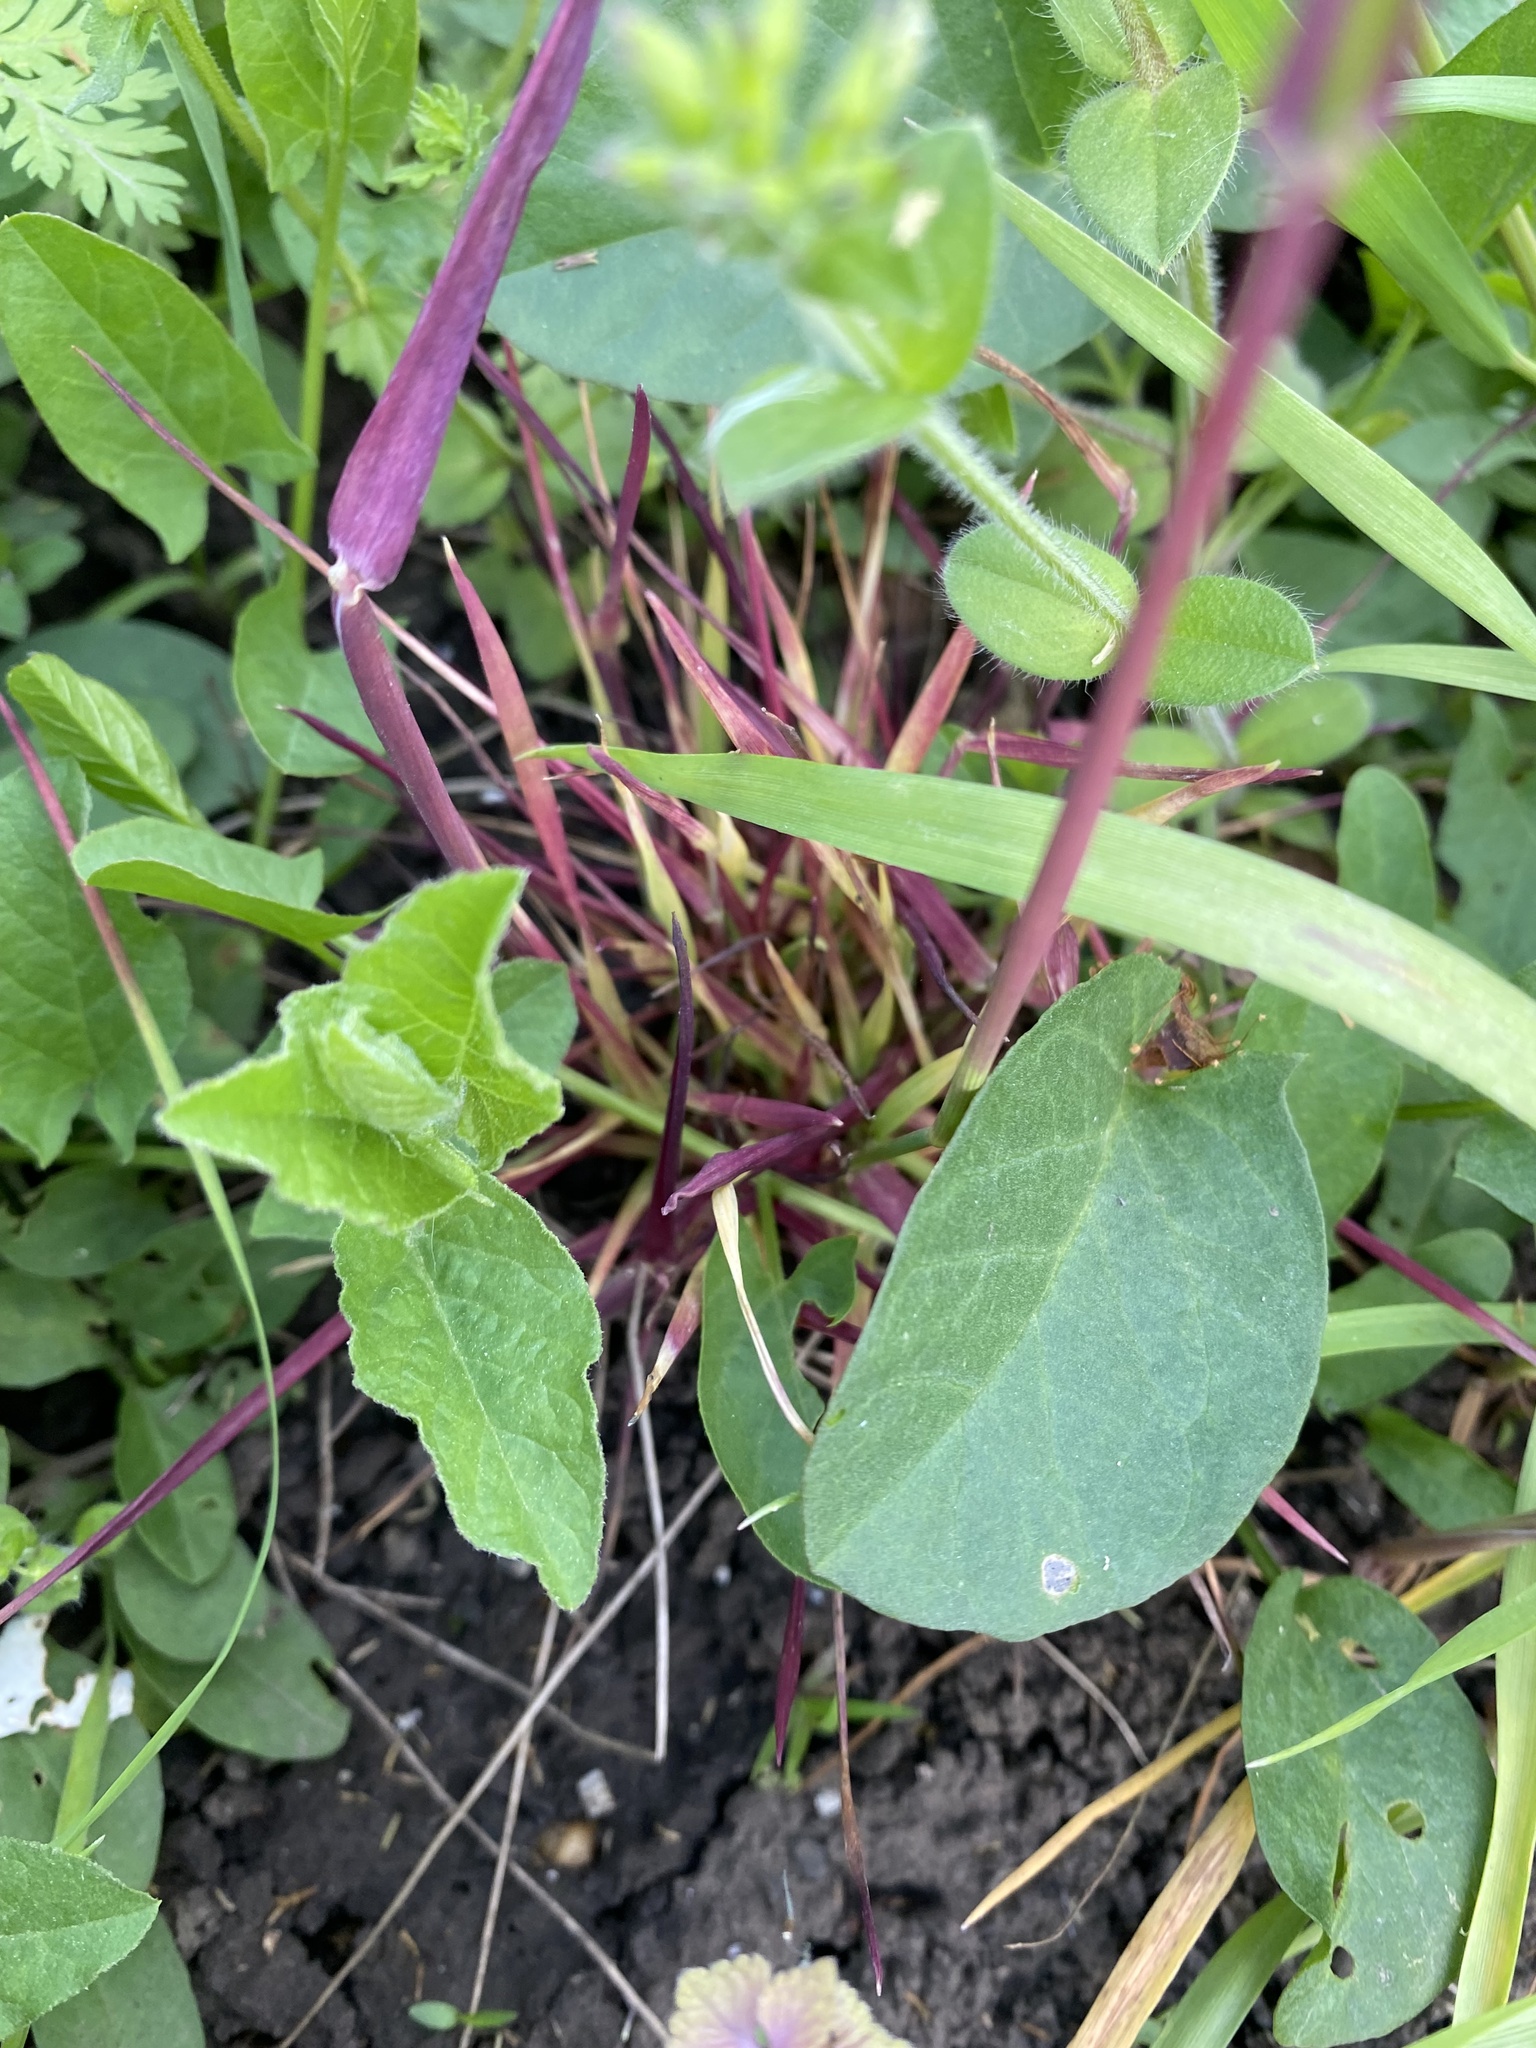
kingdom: Plantae
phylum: Tracheophyta
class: Liliopsida
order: Poales
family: Poaceae
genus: Alopecurus
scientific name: Alopecurus myosuroides
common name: Black-grass
